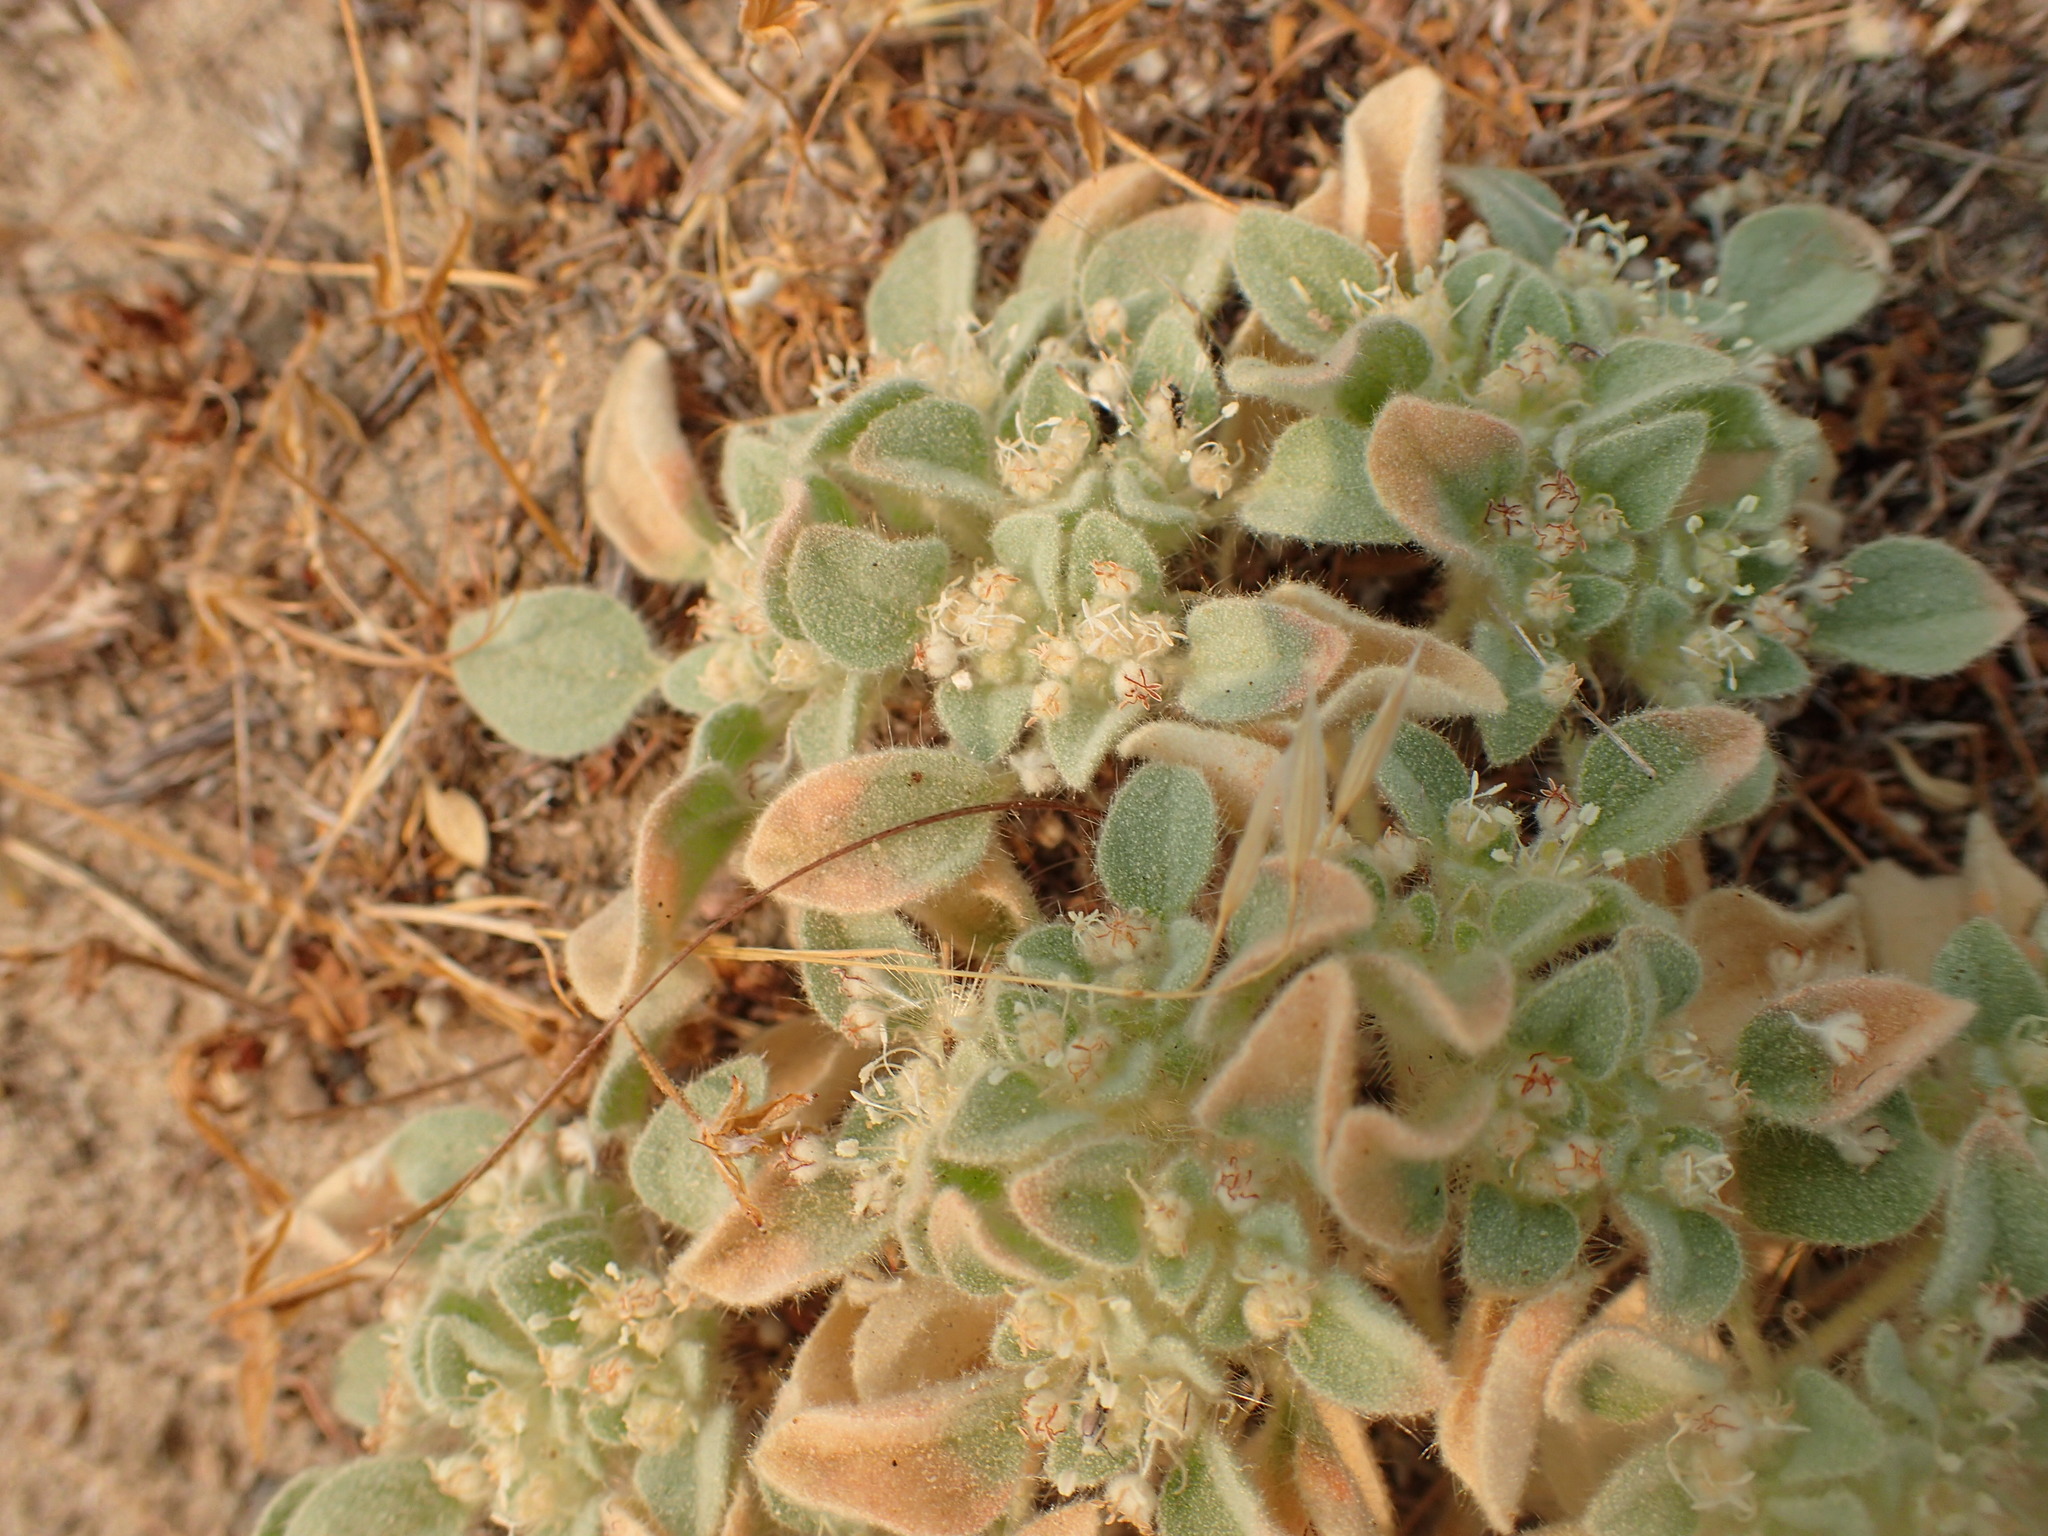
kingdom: Plantae
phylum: Tracheophyta
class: Magnoliopsida
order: Malpighiales
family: Euphorbiaceae
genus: Croton
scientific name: Croton setiger
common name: Dove weed
